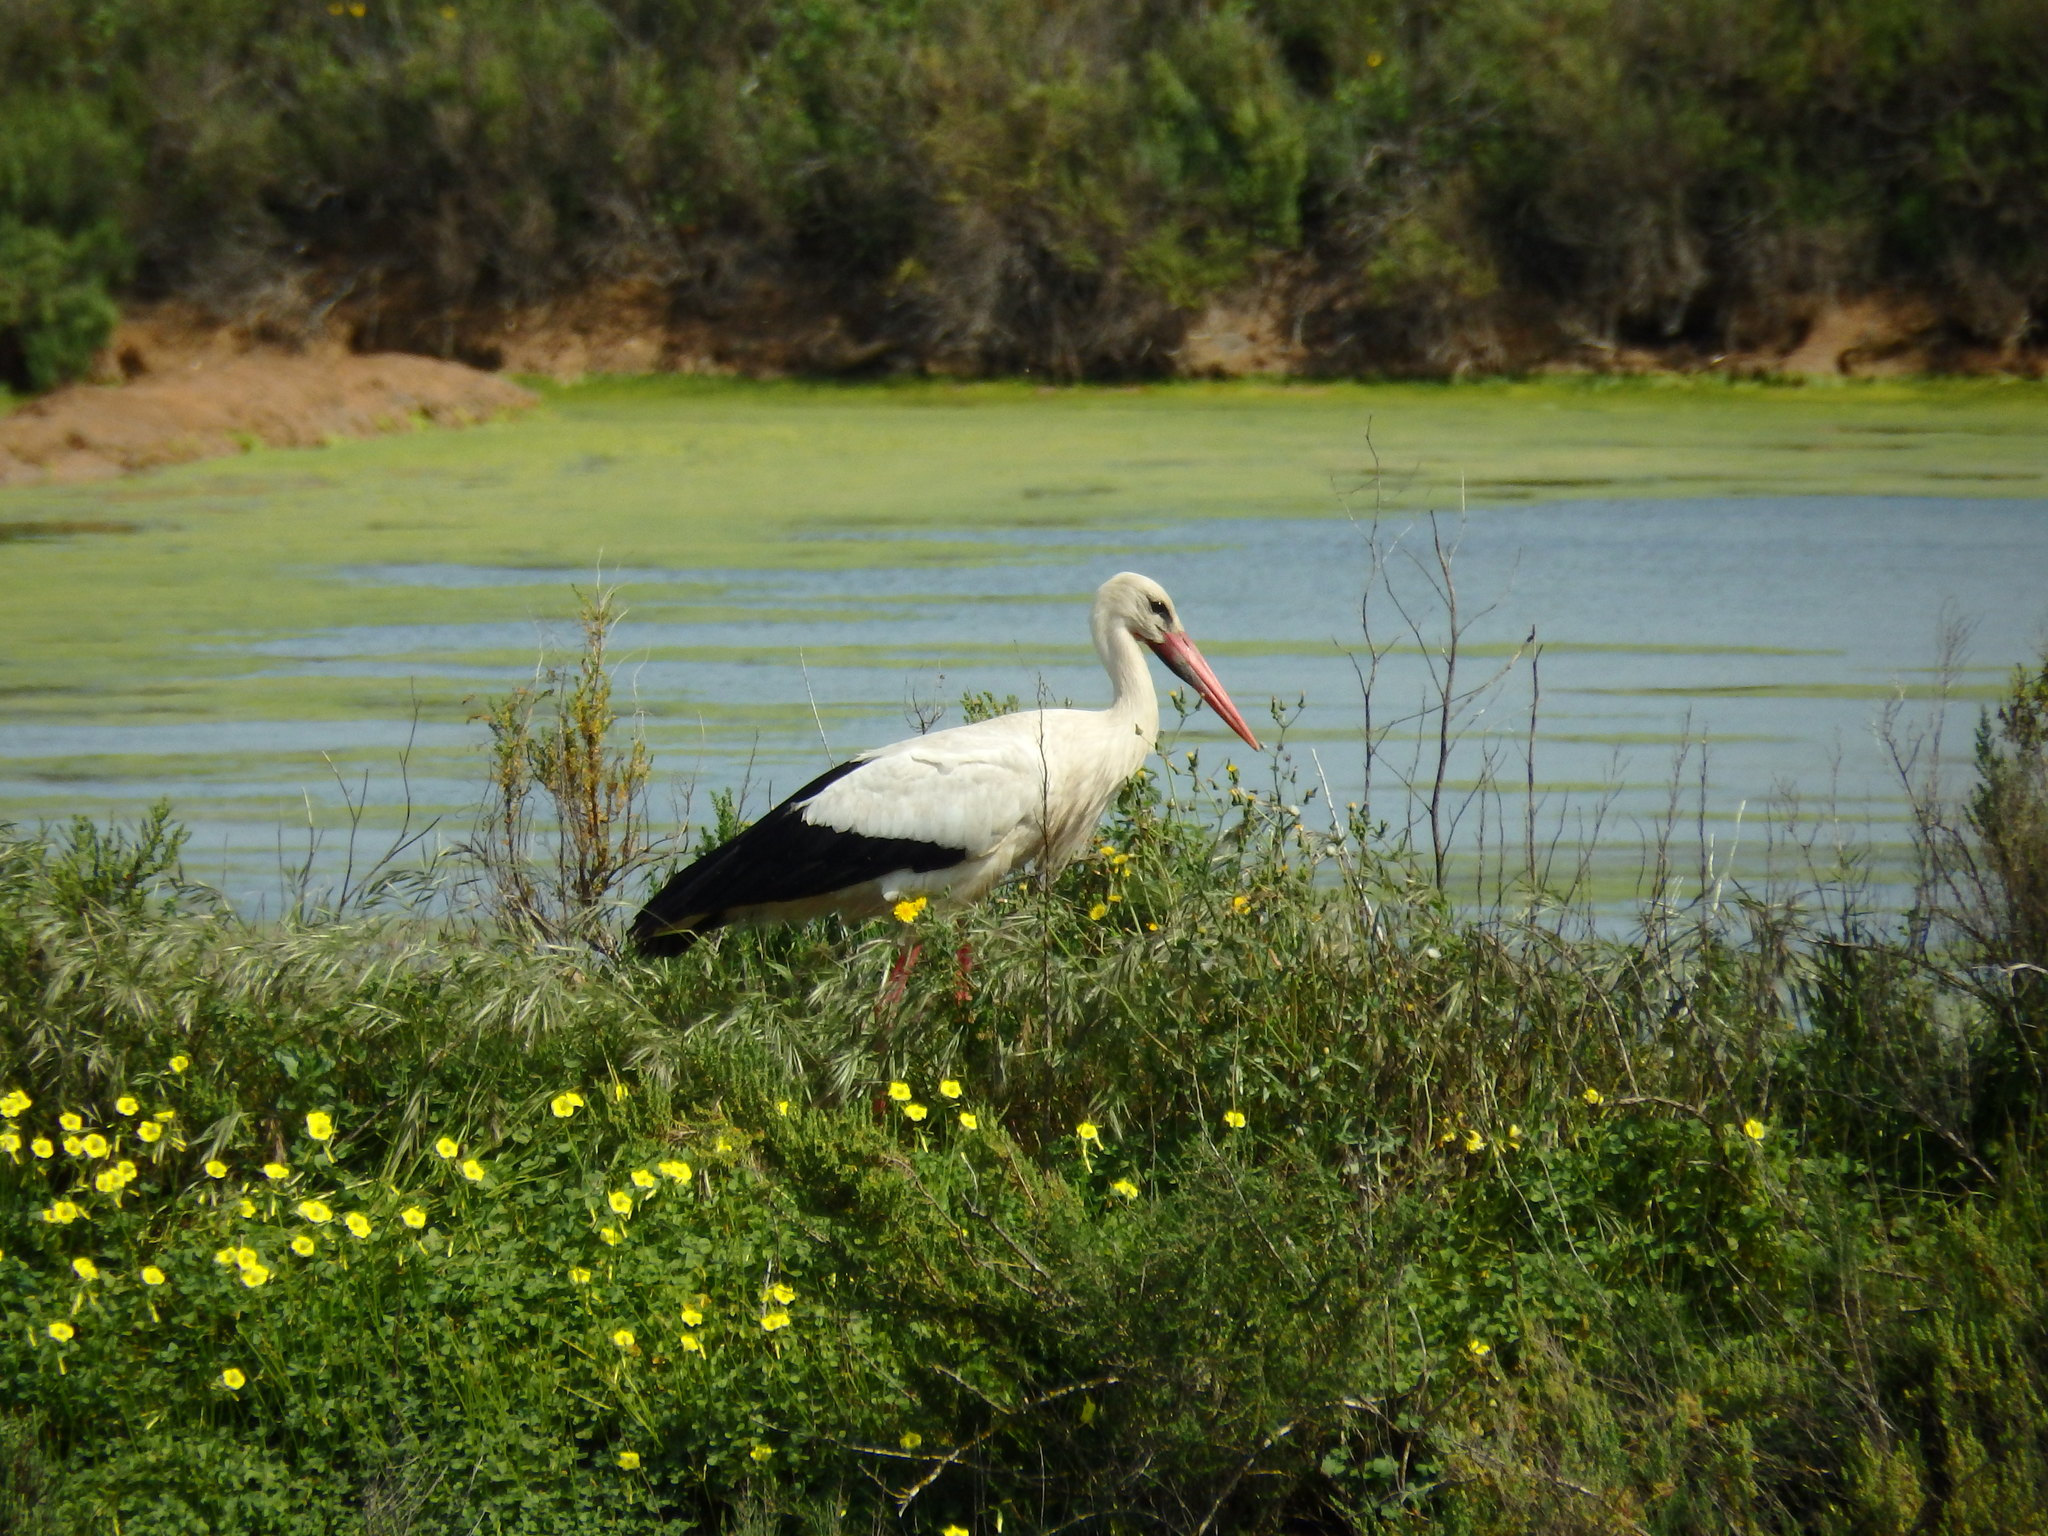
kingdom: Animalia
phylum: Chordata
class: Aves
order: Ciconiiformes
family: Ciconiidae
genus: Ciconia
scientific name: Ciconia ciconia
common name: White stork
